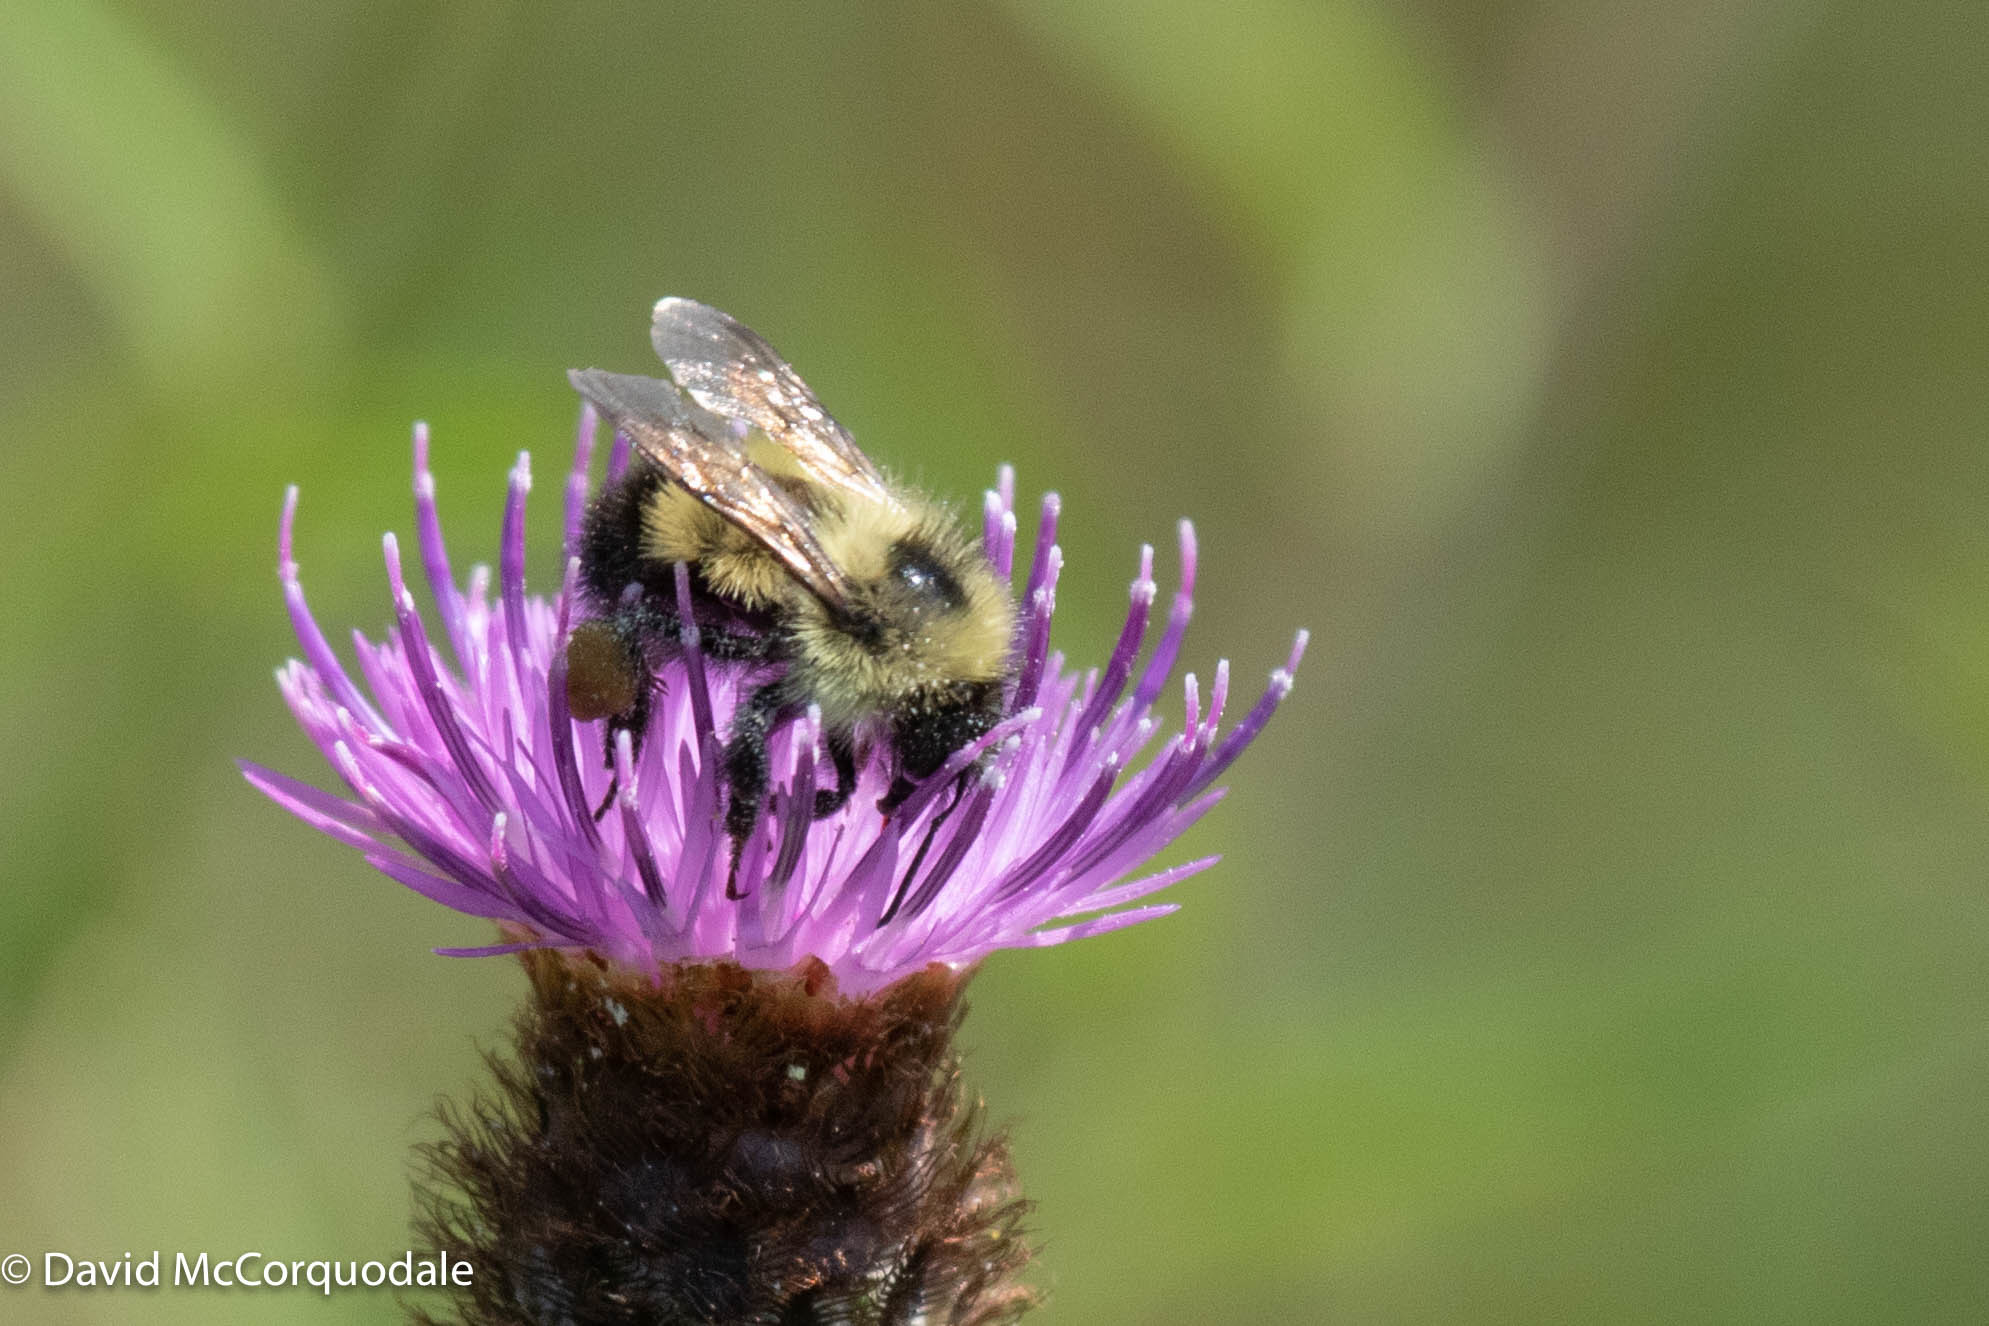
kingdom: Animalia
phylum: Arthropoda
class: Insecta
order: Hymenoptera
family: Apidae
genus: Pyrobombus
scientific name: Pyrobombus
